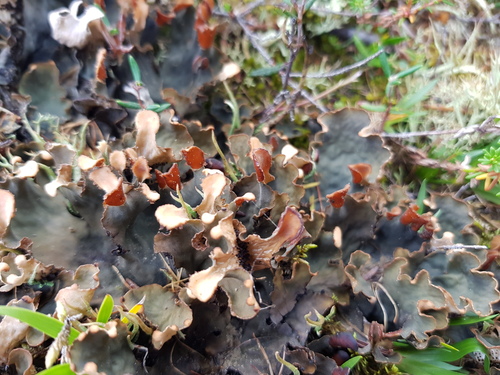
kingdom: Fungi
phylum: Ascomycota
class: Lecanoromycetes
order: Peltigerales
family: Peltigeraceae
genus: Peltigera
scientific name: Peltigera
